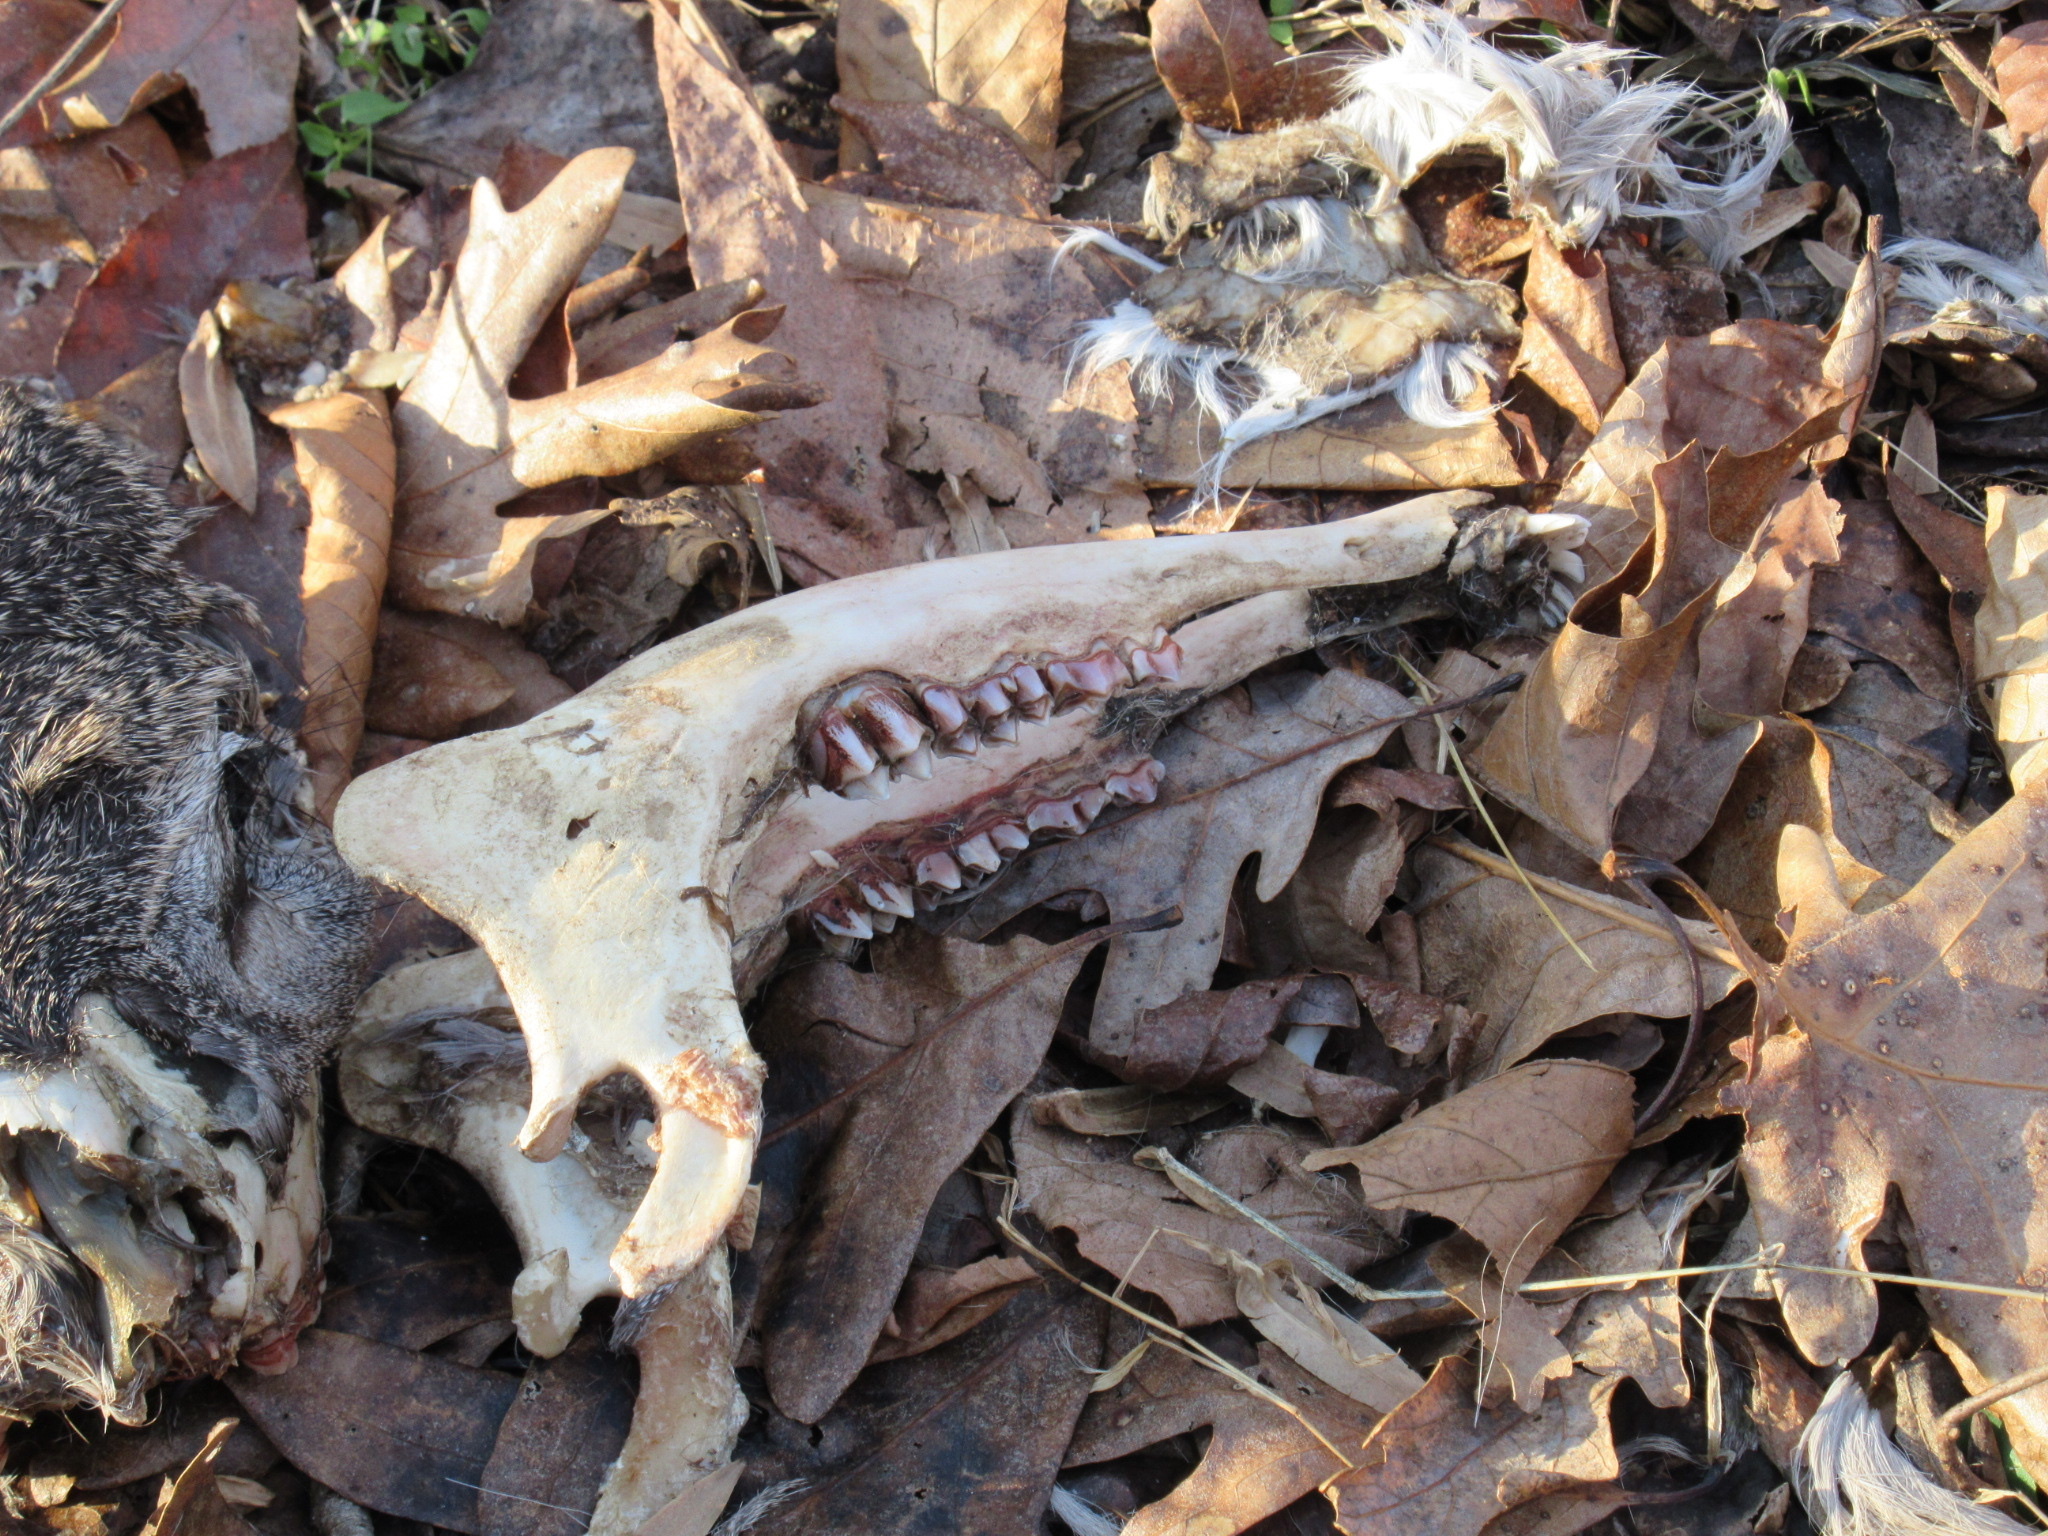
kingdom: Animalia
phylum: Chordata
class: Mammalia
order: Artiodactyla
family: Cervidae
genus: Odocoileus
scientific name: Odocoileus virginianus
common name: White-tailed deer
